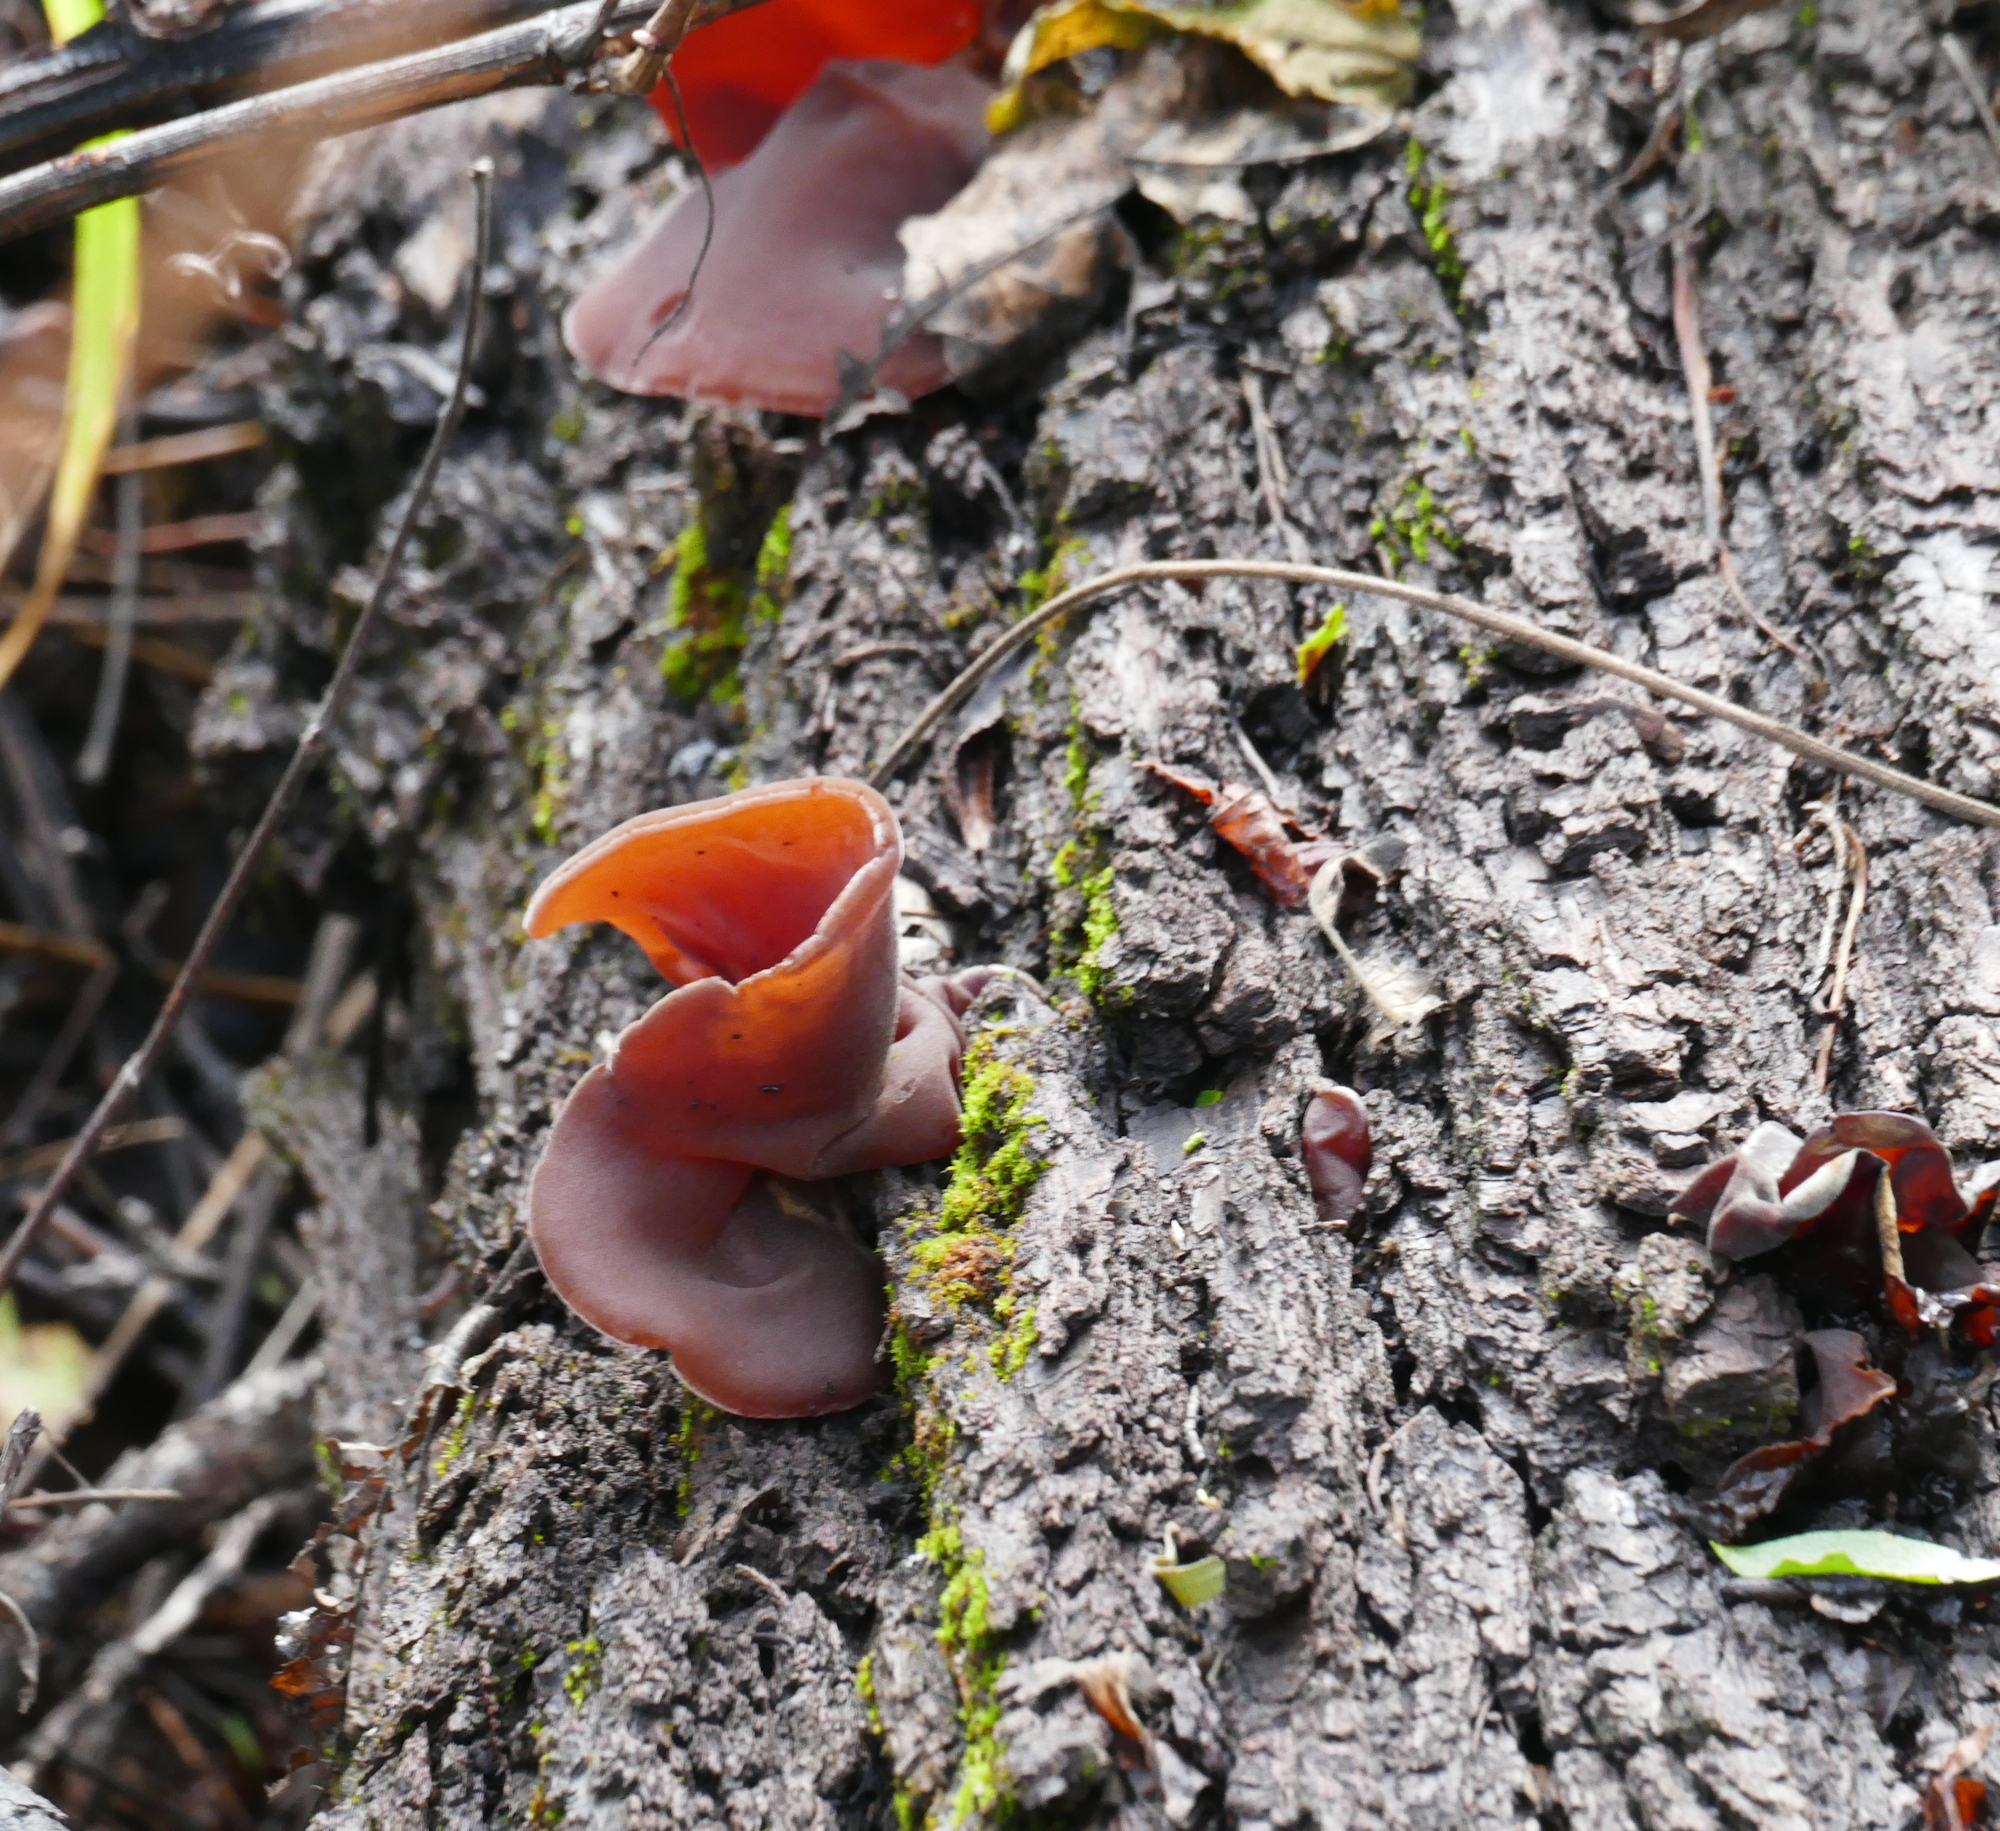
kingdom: Fungi
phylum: Basidiomycota
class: Agaricomycetes
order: Auriculariales
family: Auriculariaceae
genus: Auricularia
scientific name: Auricularia angiospermarum
